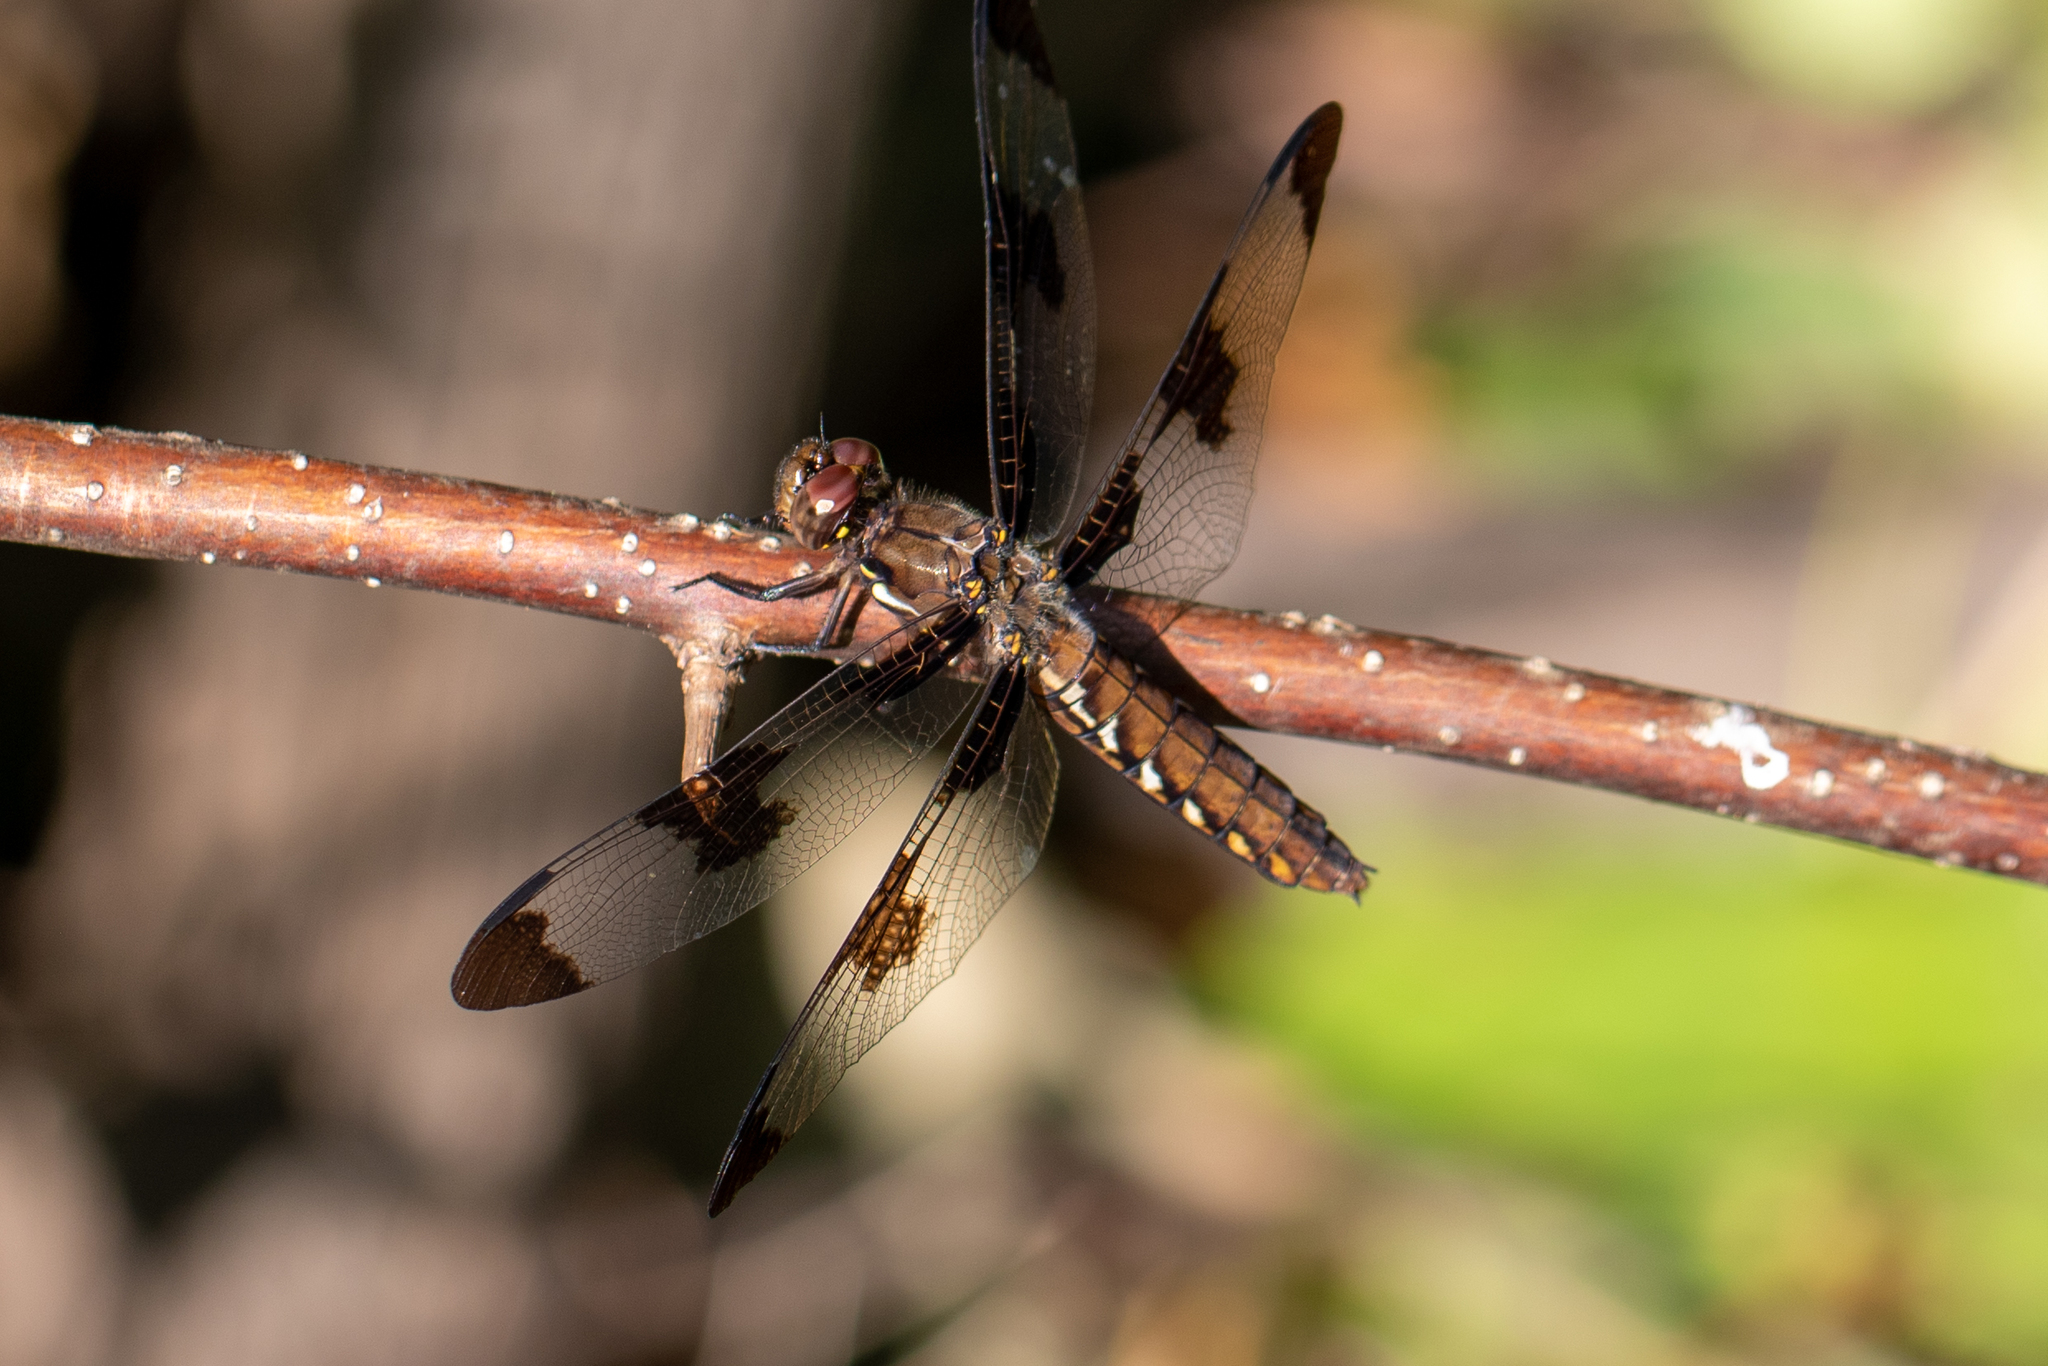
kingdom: Animalia
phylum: Arthropoda
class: Insecta
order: Odonata
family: Libellulidae
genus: Plathemis
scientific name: Plathemis lydia
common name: Common whitetail
